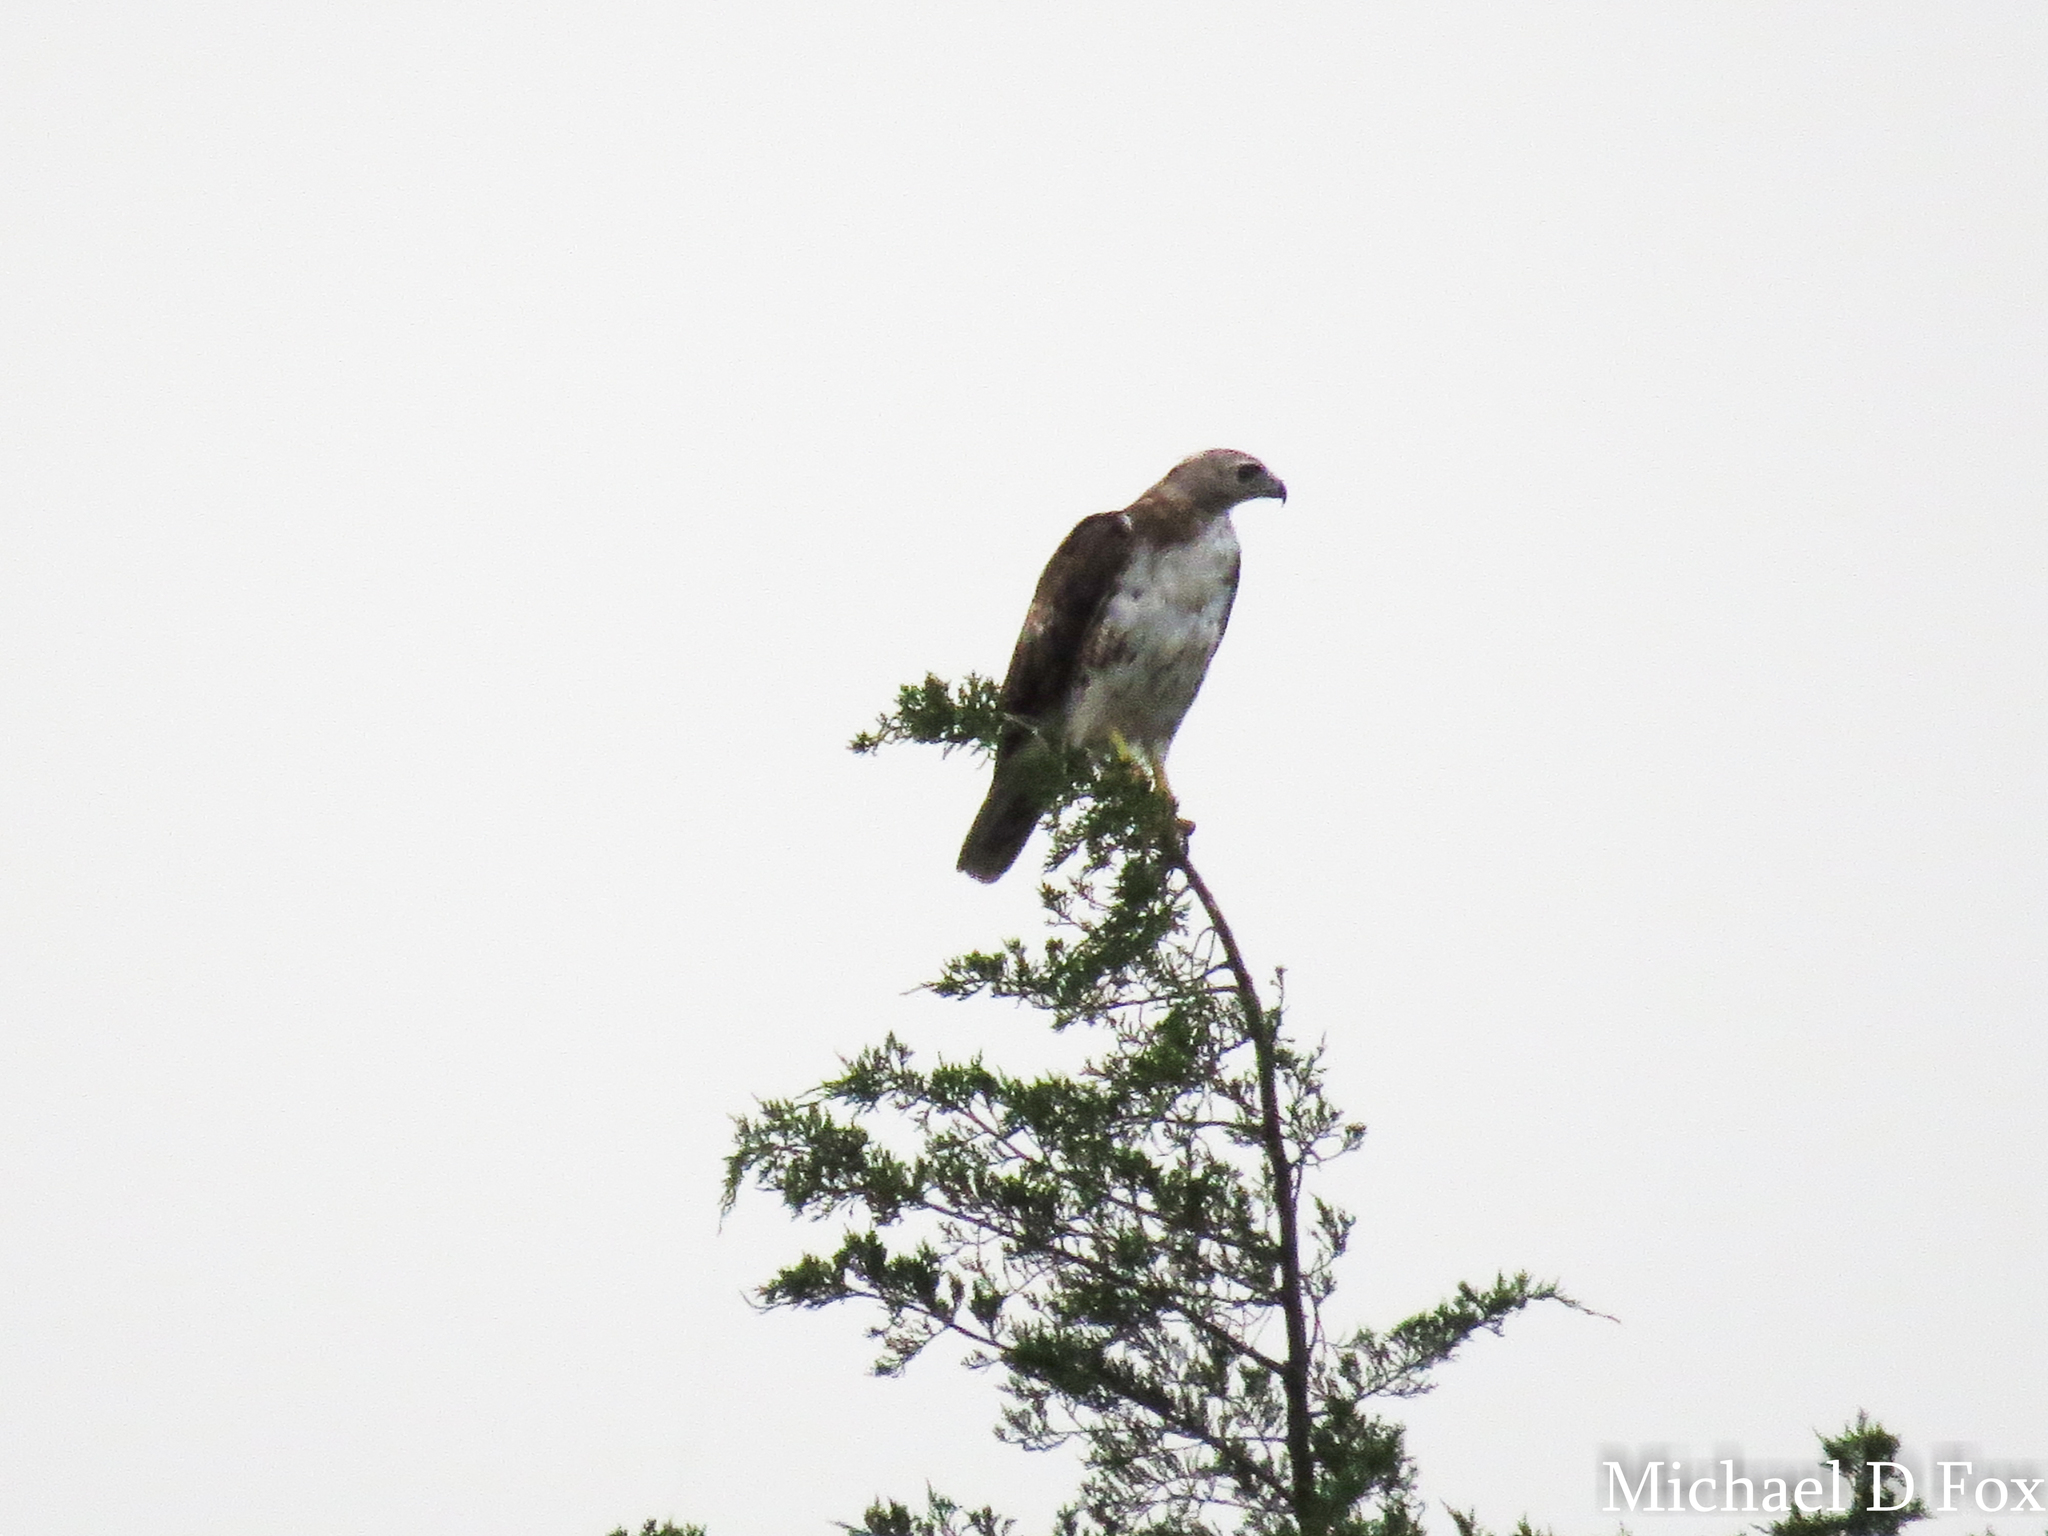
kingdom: Animalia
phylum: Chordata
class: Aves
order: Accipitriformes
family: Accipitridae
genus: Buteo
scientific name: Buteo jamaicensis
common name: Red-tailed hawk
